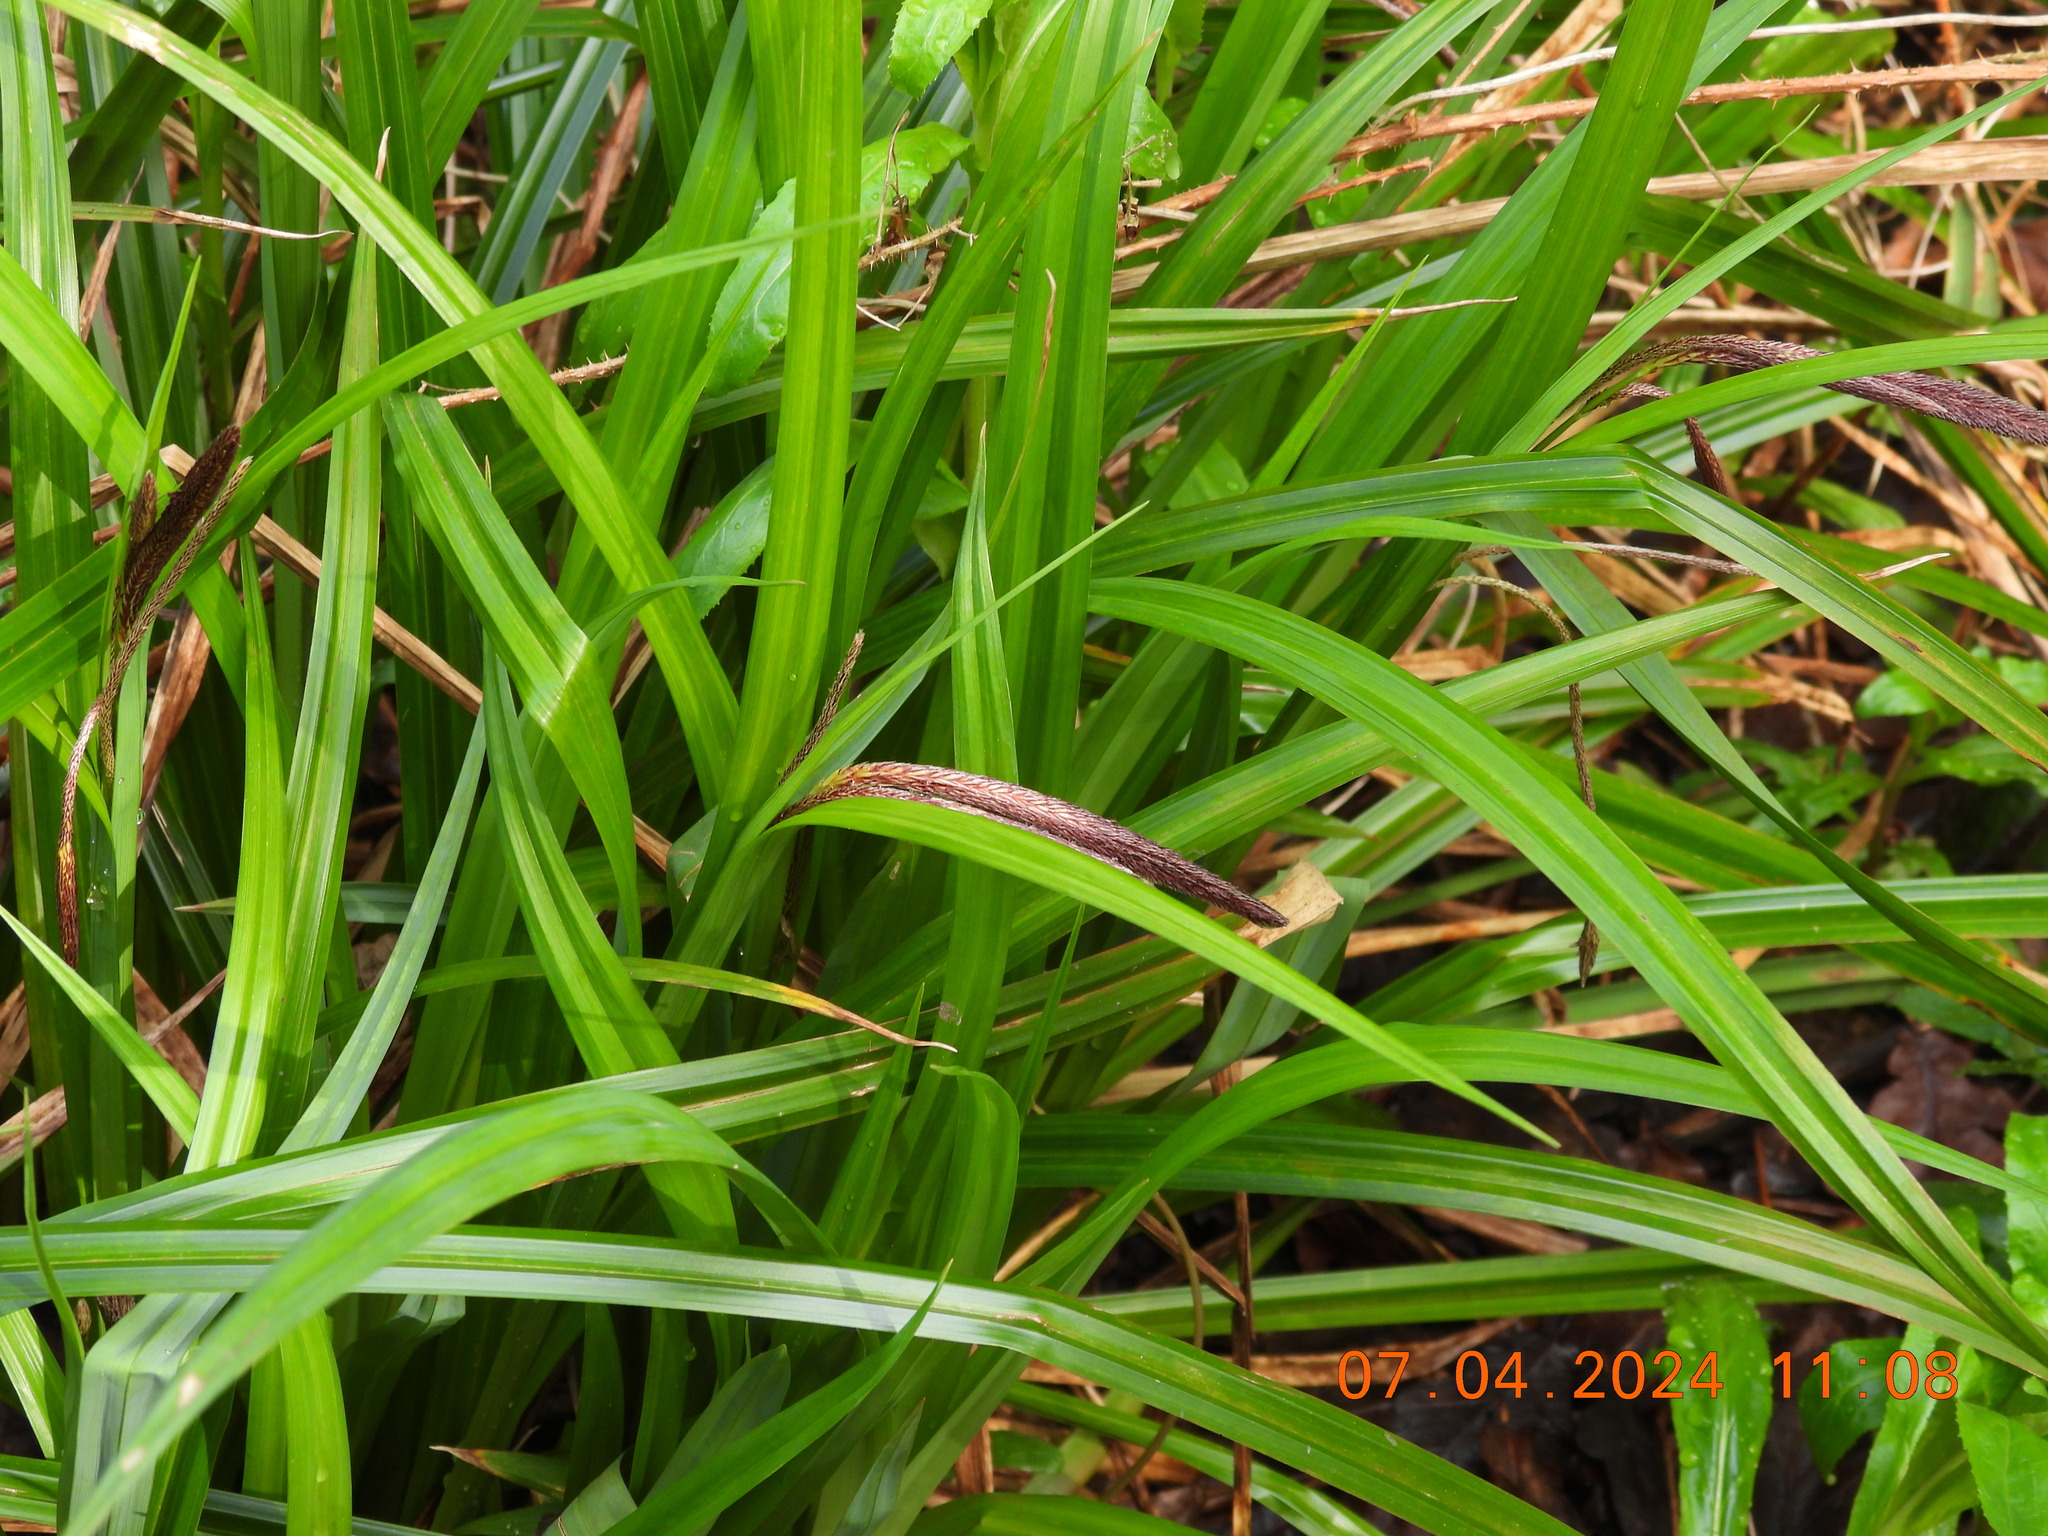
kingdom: Plantae
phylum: Tracheophyta
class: Liliopsida
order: Poales
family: Cyperaceae
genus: Carex
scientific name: Carex pendula
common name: Pendulous sedge
